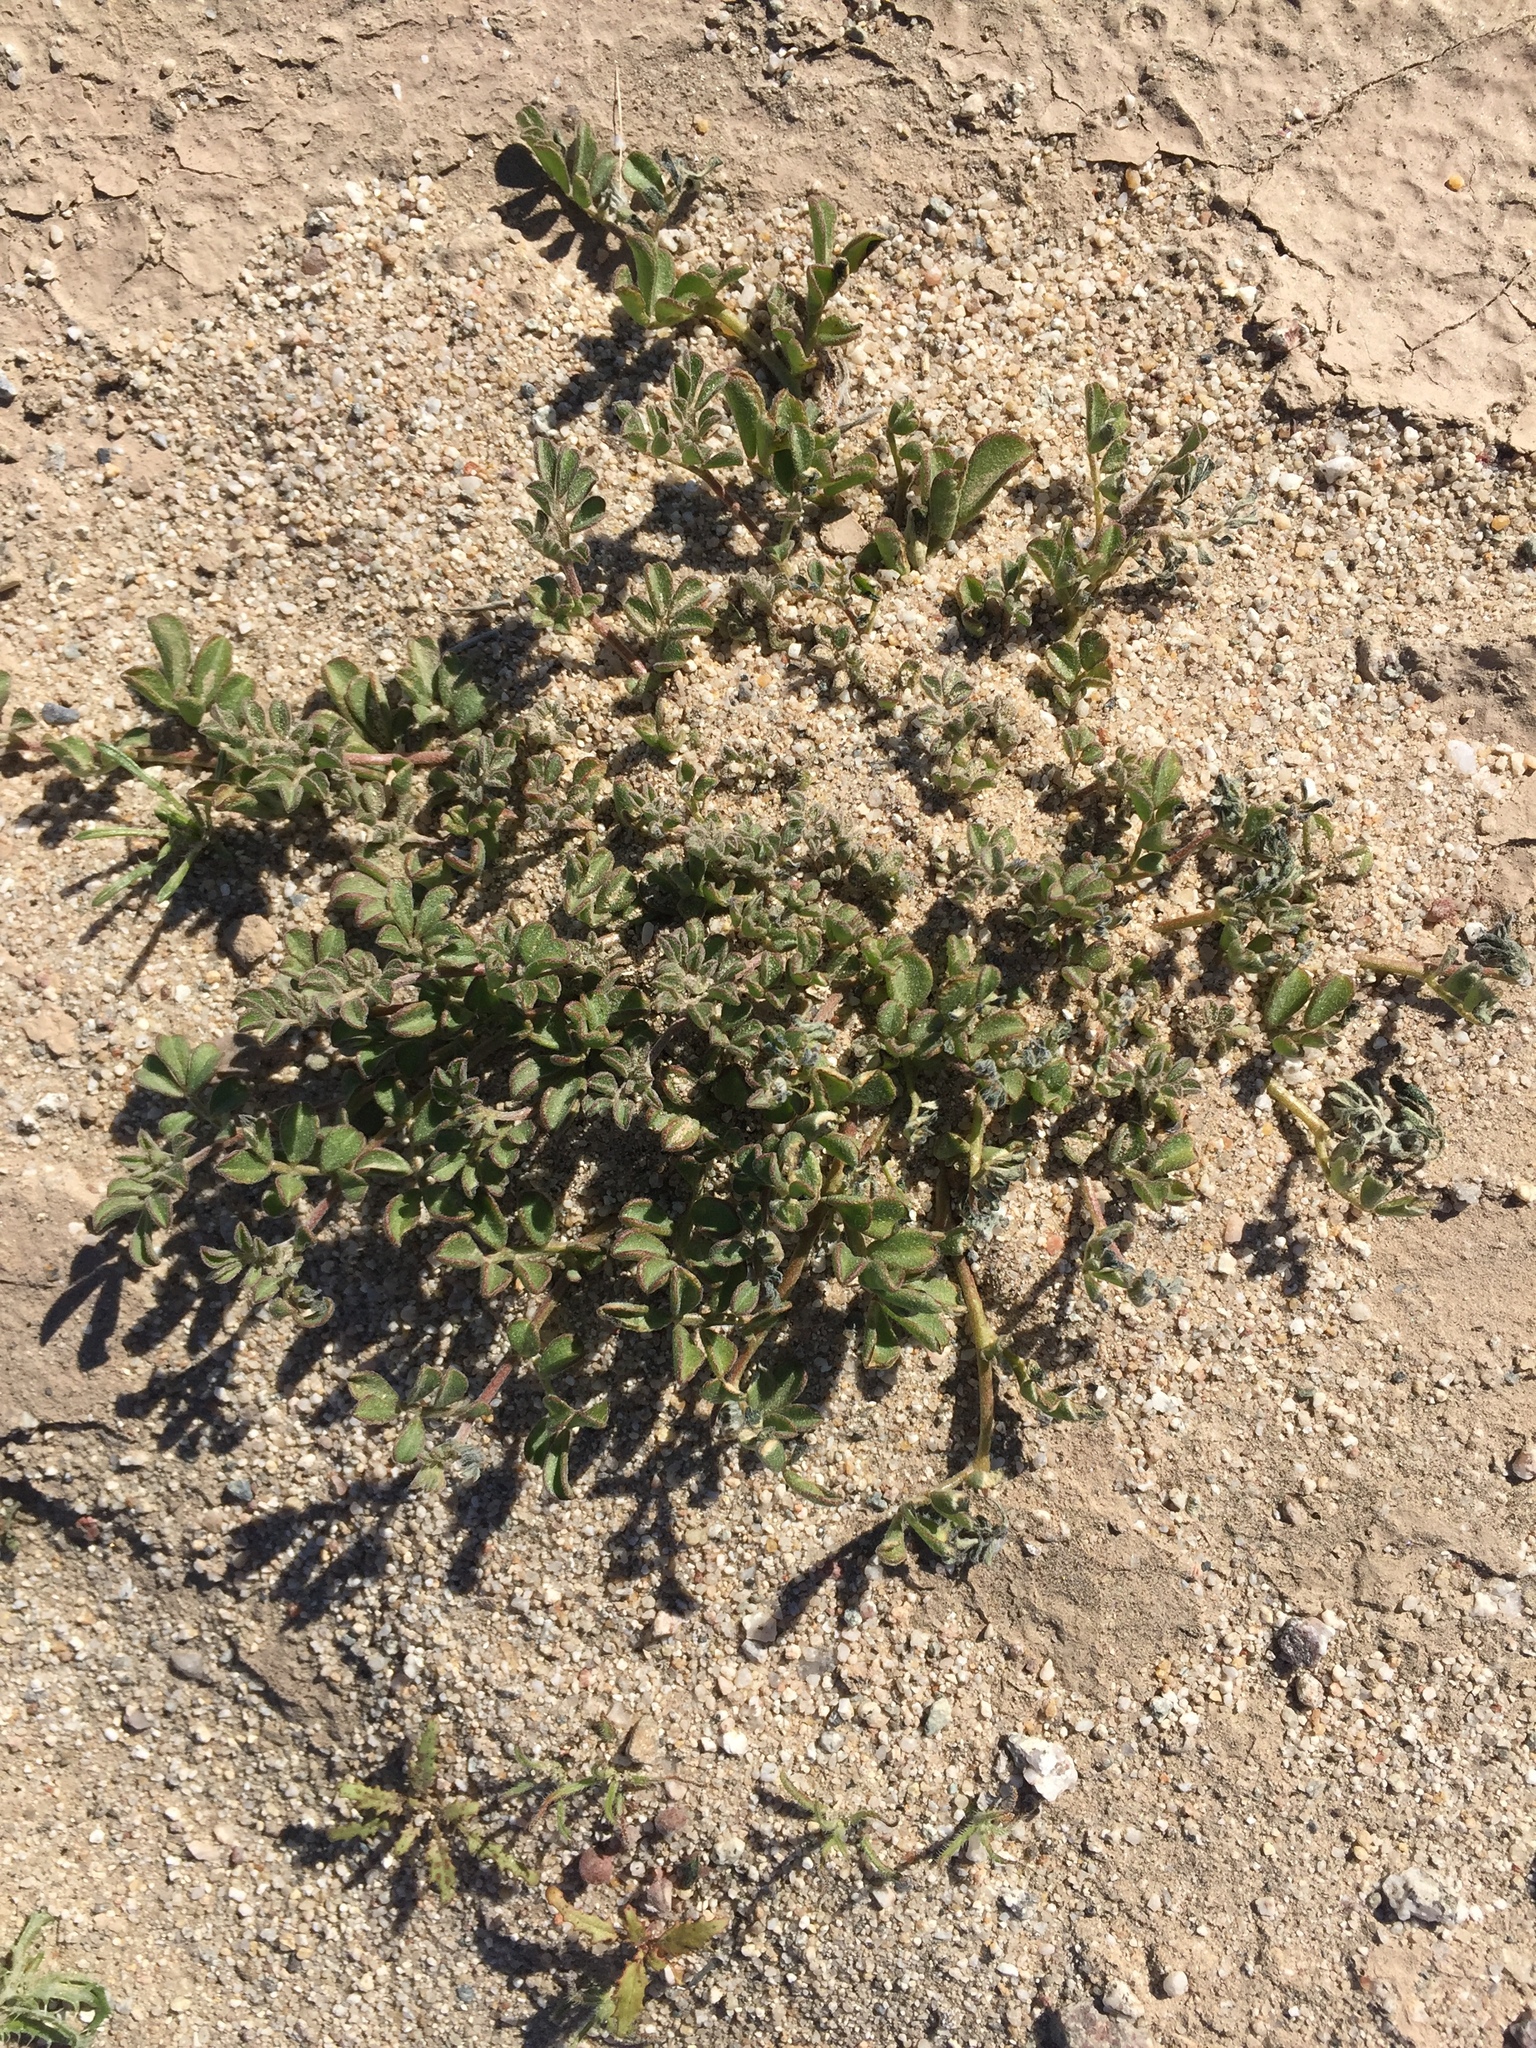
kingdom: Plantae
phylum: Tracheophyta
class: Magnoliopsida
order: Fabales
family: Fabaceae
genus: Acmispon
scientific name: Acmispon strigosus
